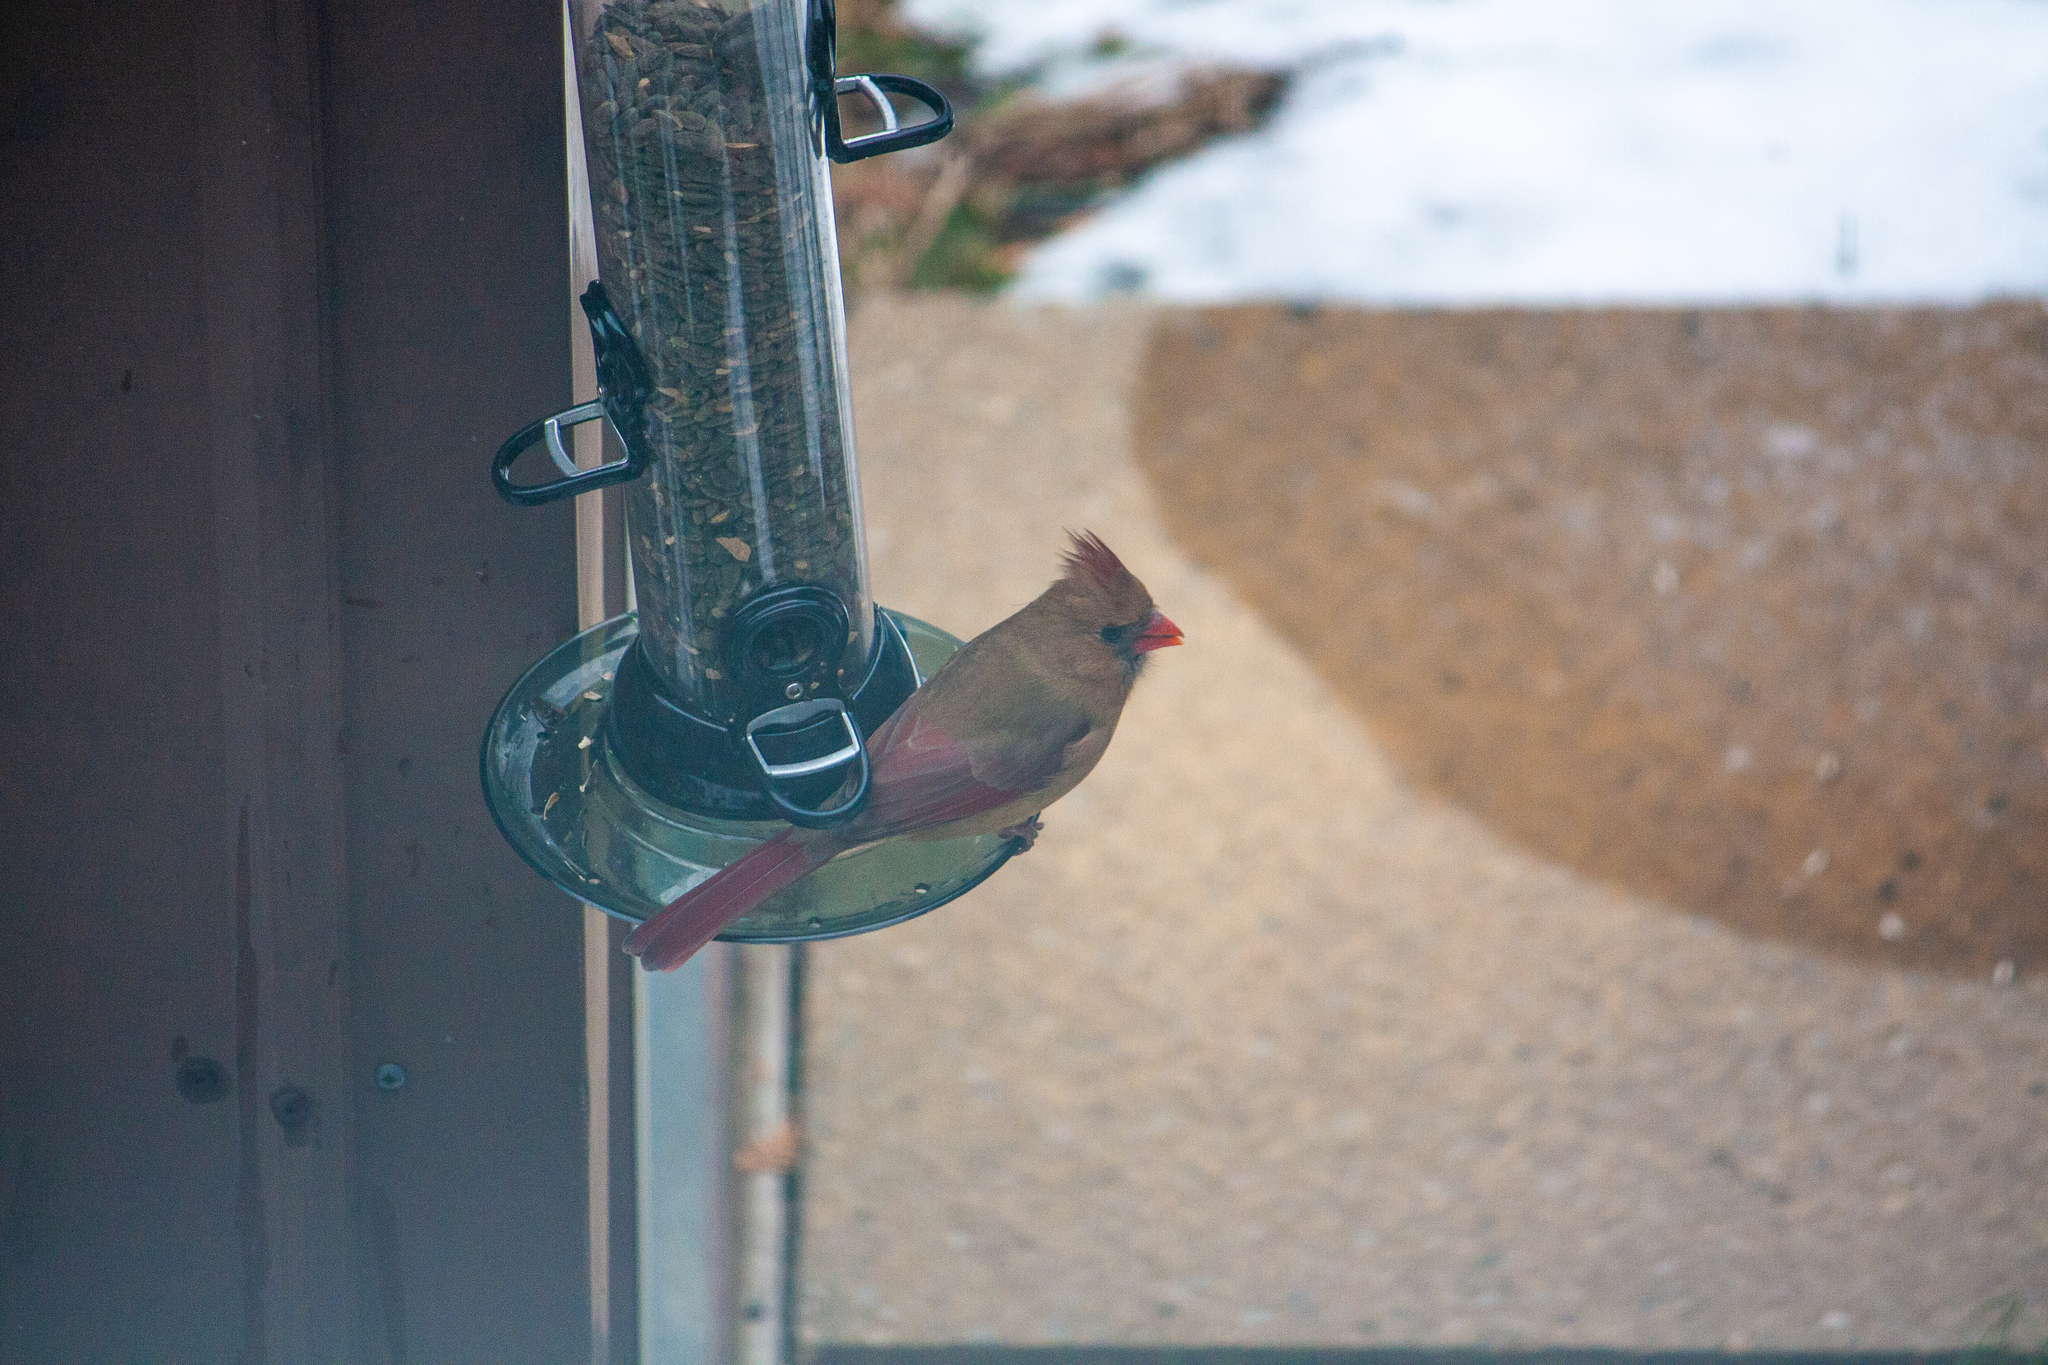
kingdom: Animalia
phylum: Chordata
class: Aves
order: Passeriformes
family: Cardinalidae
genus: Cardinalis
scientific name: Cardinalis cardinalis
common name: Northern cardinal
